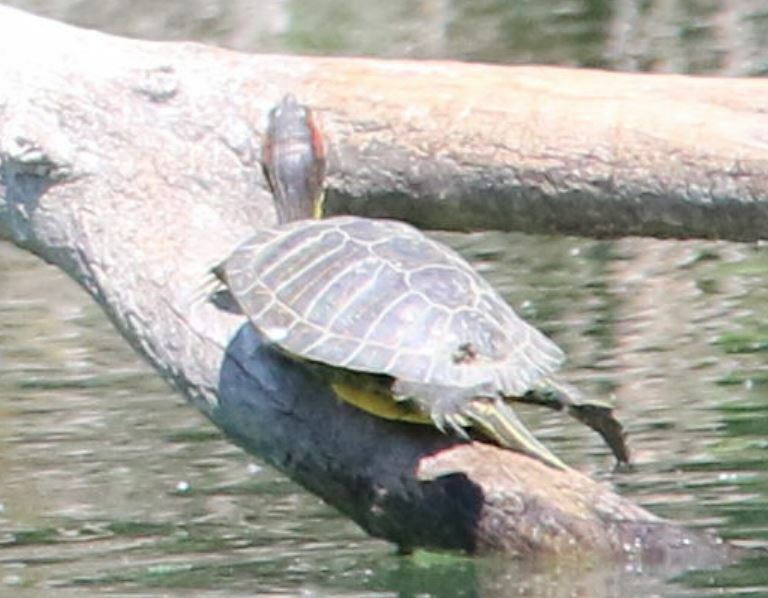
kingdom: Animalia
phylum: Chordata
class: Testudines
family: Emydidae
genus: Trachemys
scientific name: Trachemys scripta
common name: Slider
